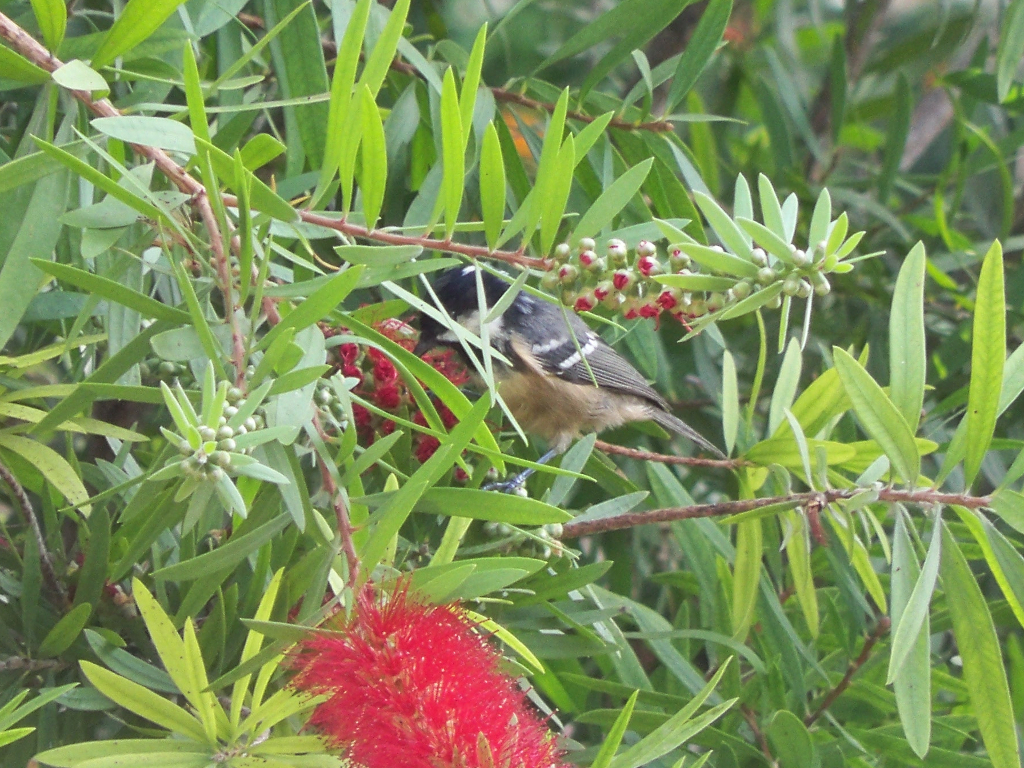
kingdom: Animalia
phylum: Chordata
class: Aves
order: Passeriformes
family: Paridae
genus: Periparus
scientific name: Periparus ater
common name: Coal tit
